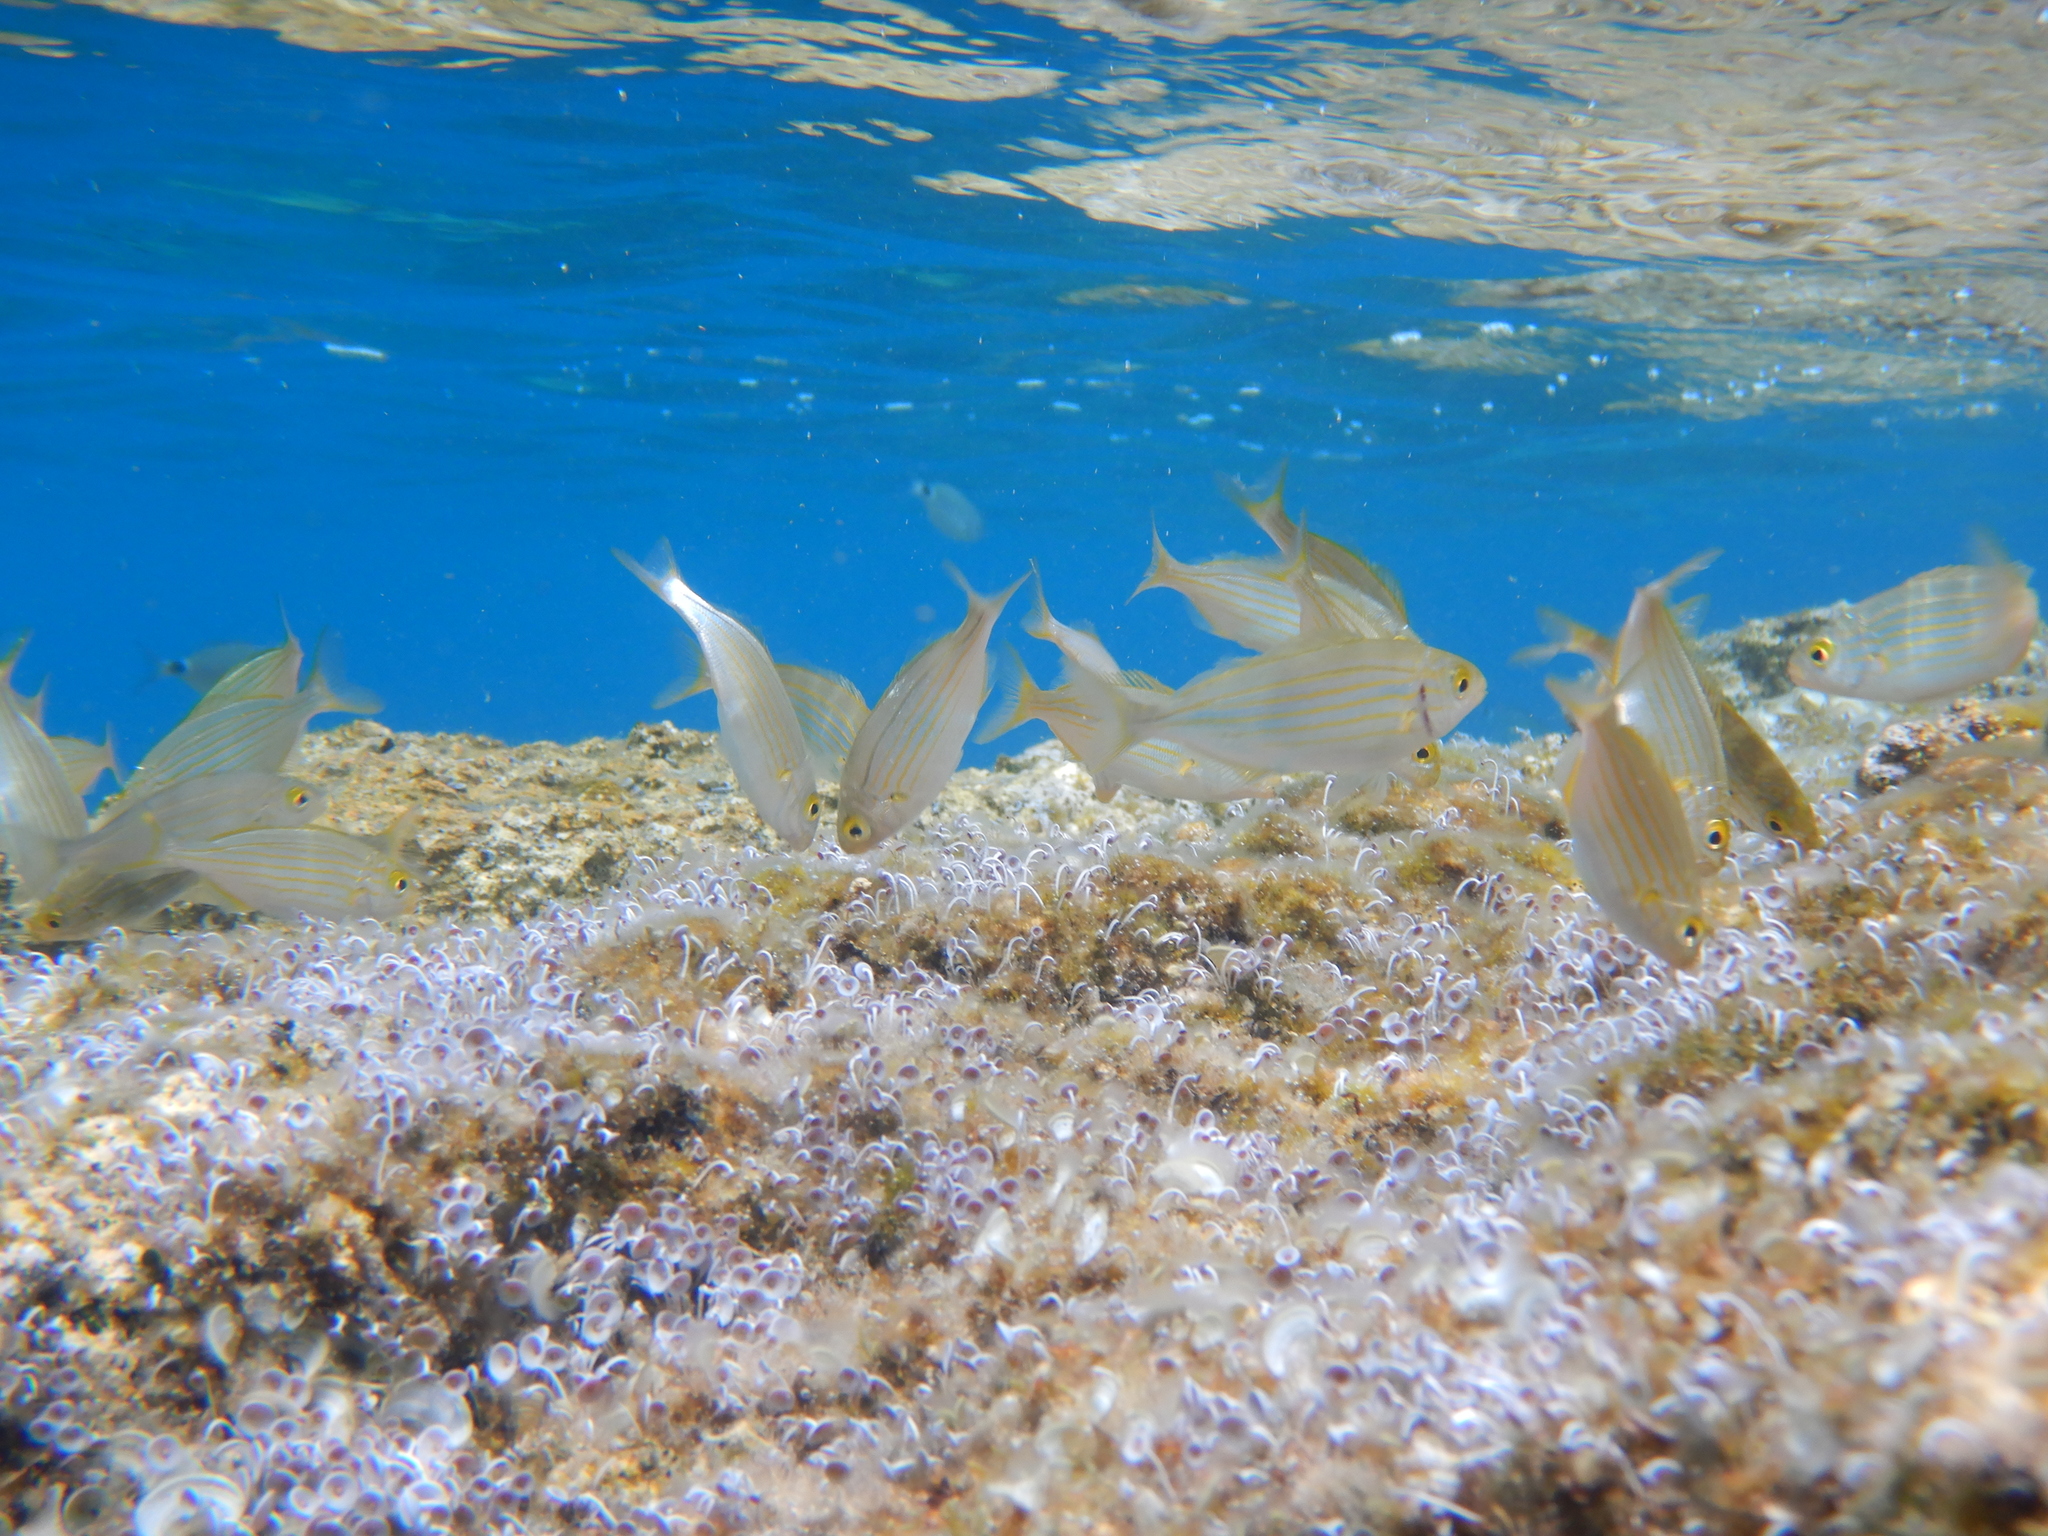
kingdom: Animalia
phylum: Chordata
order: Perciformes
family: Sparidae
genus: Sarpa
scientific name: Sarpa salpa
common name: Salema
